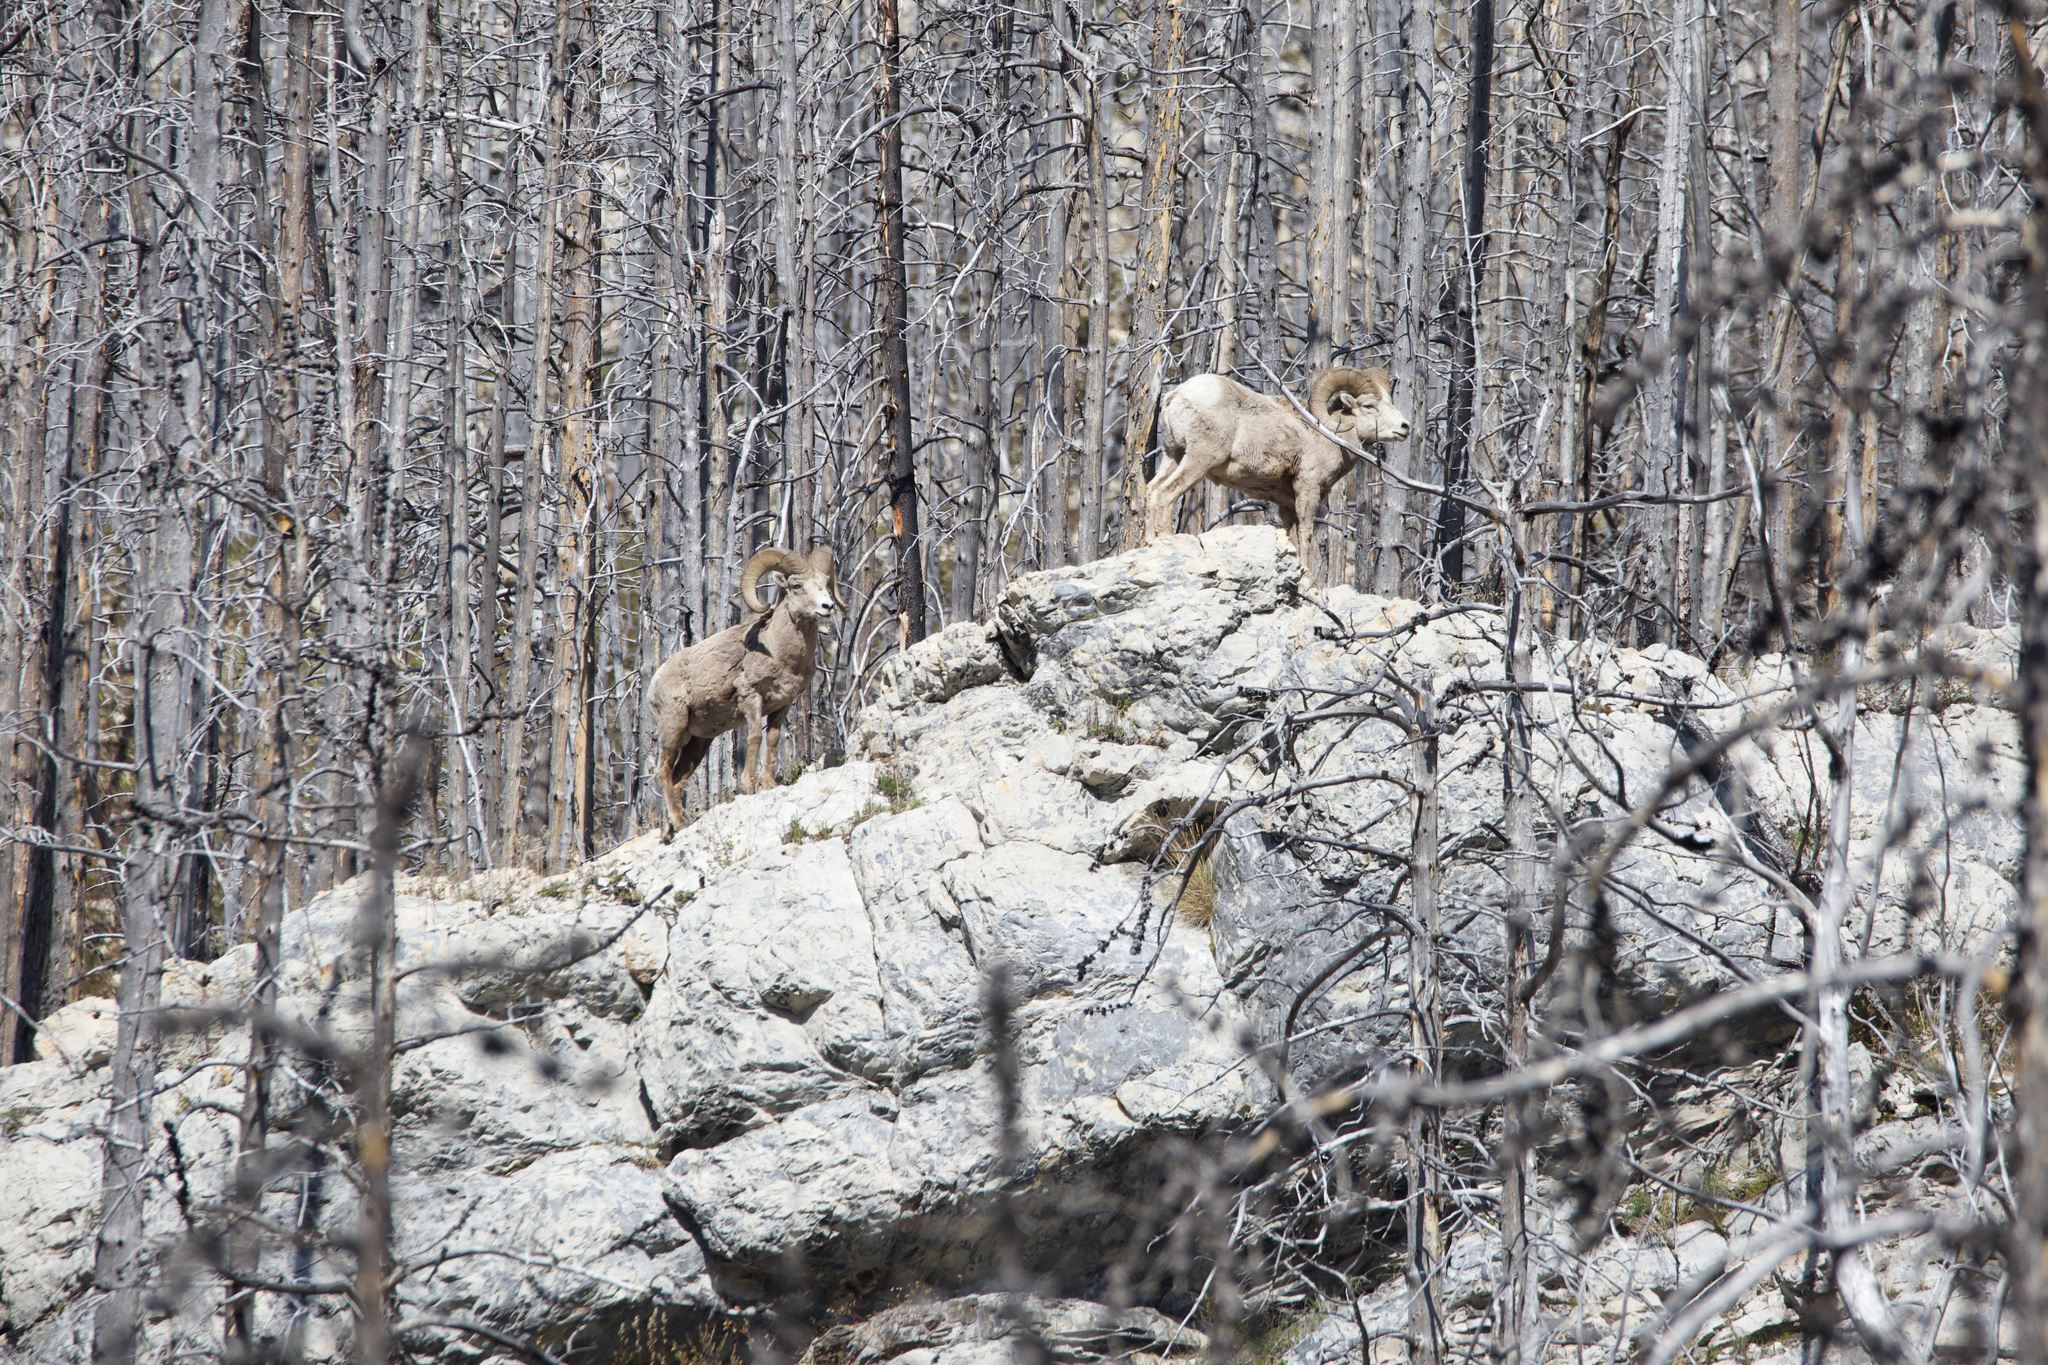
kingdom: Animalia
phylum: Chordata
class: Mammalia
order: Artiodactyla
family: Bovidae
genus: Ovis
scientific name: Ovis canadensis
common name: Bighorn sheep
